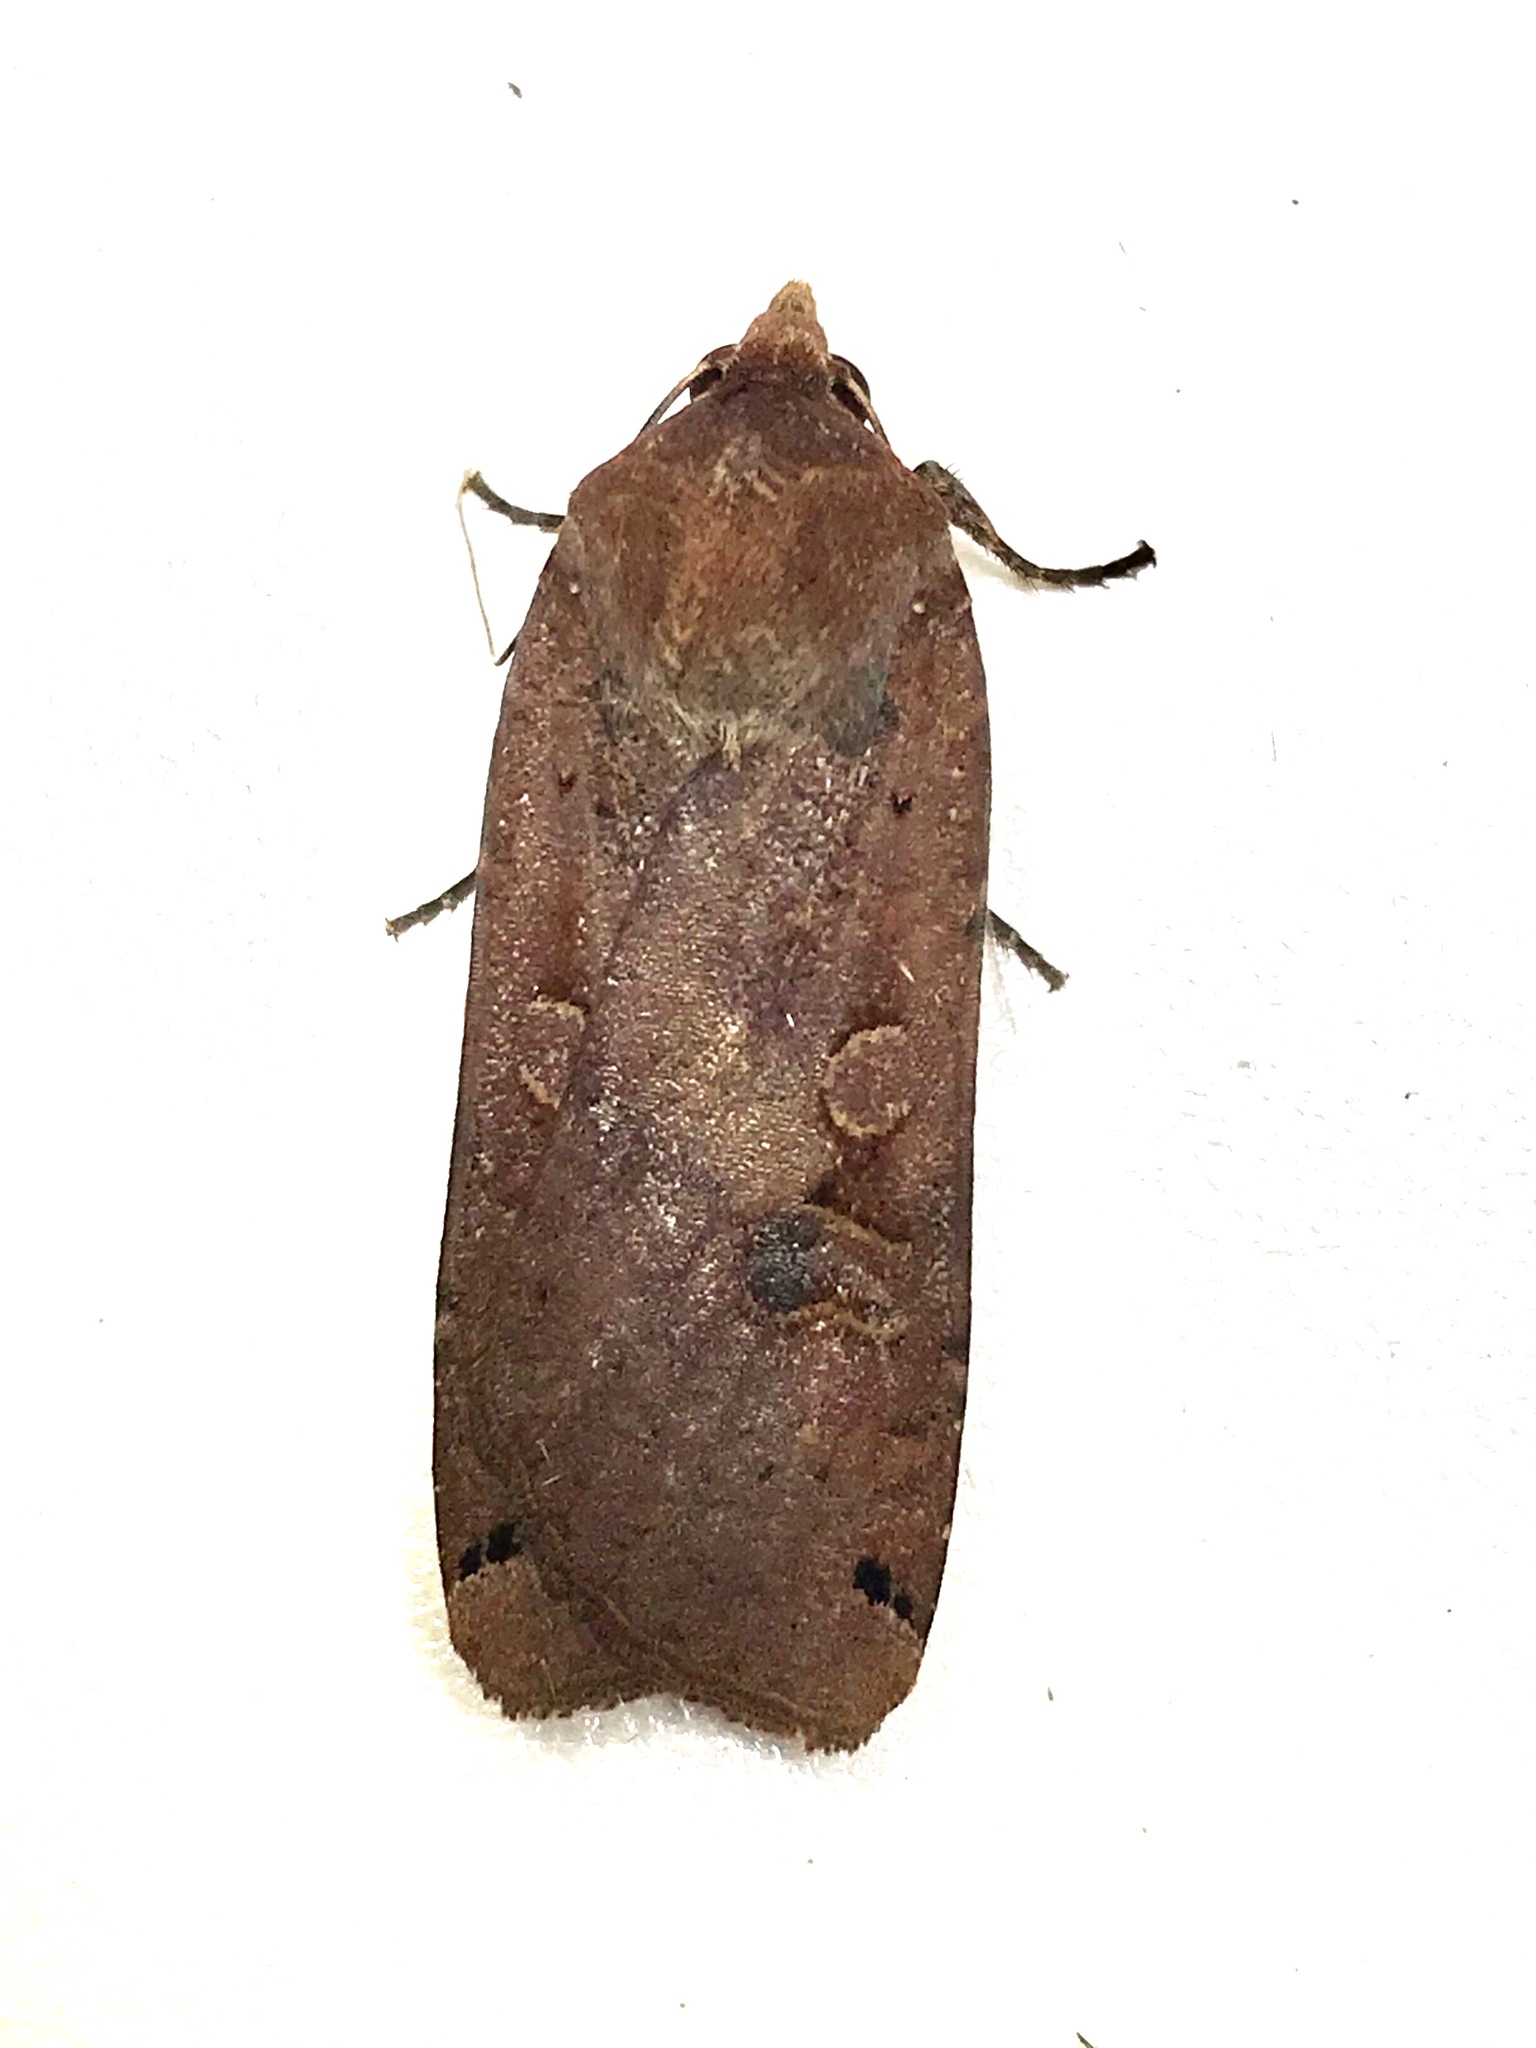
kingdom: Animalia
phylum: Arthropoda
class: Insecta
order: Lepidoptera
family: Noctuidae
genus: Noctua
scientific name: Noctua pronuba
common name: Large yellow underwing
